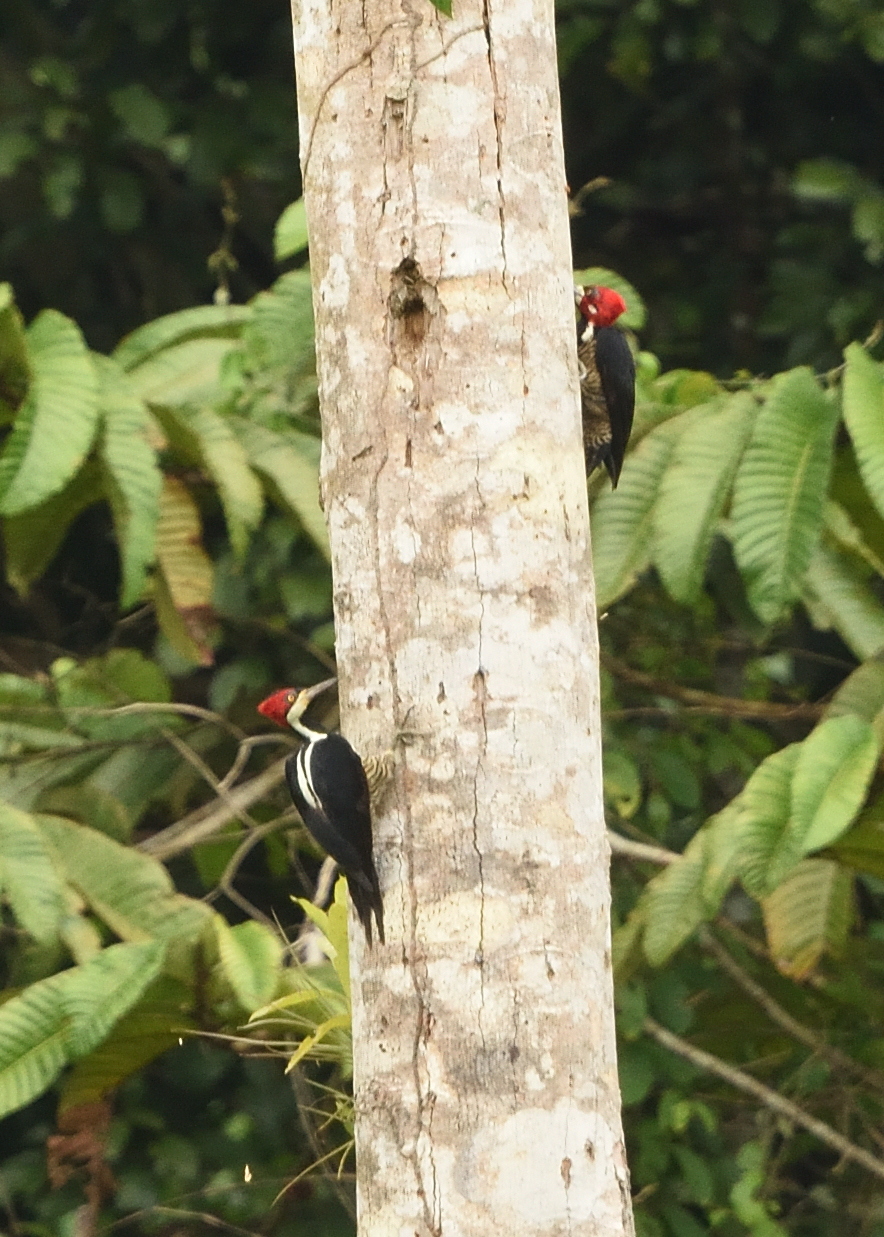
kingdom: Animalia
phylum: Chordata
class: Aves
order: Piciformes
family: Picidae
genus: Campephilus
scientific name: Campephilus melanoleucos
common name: Crimson-crested woodpecker
